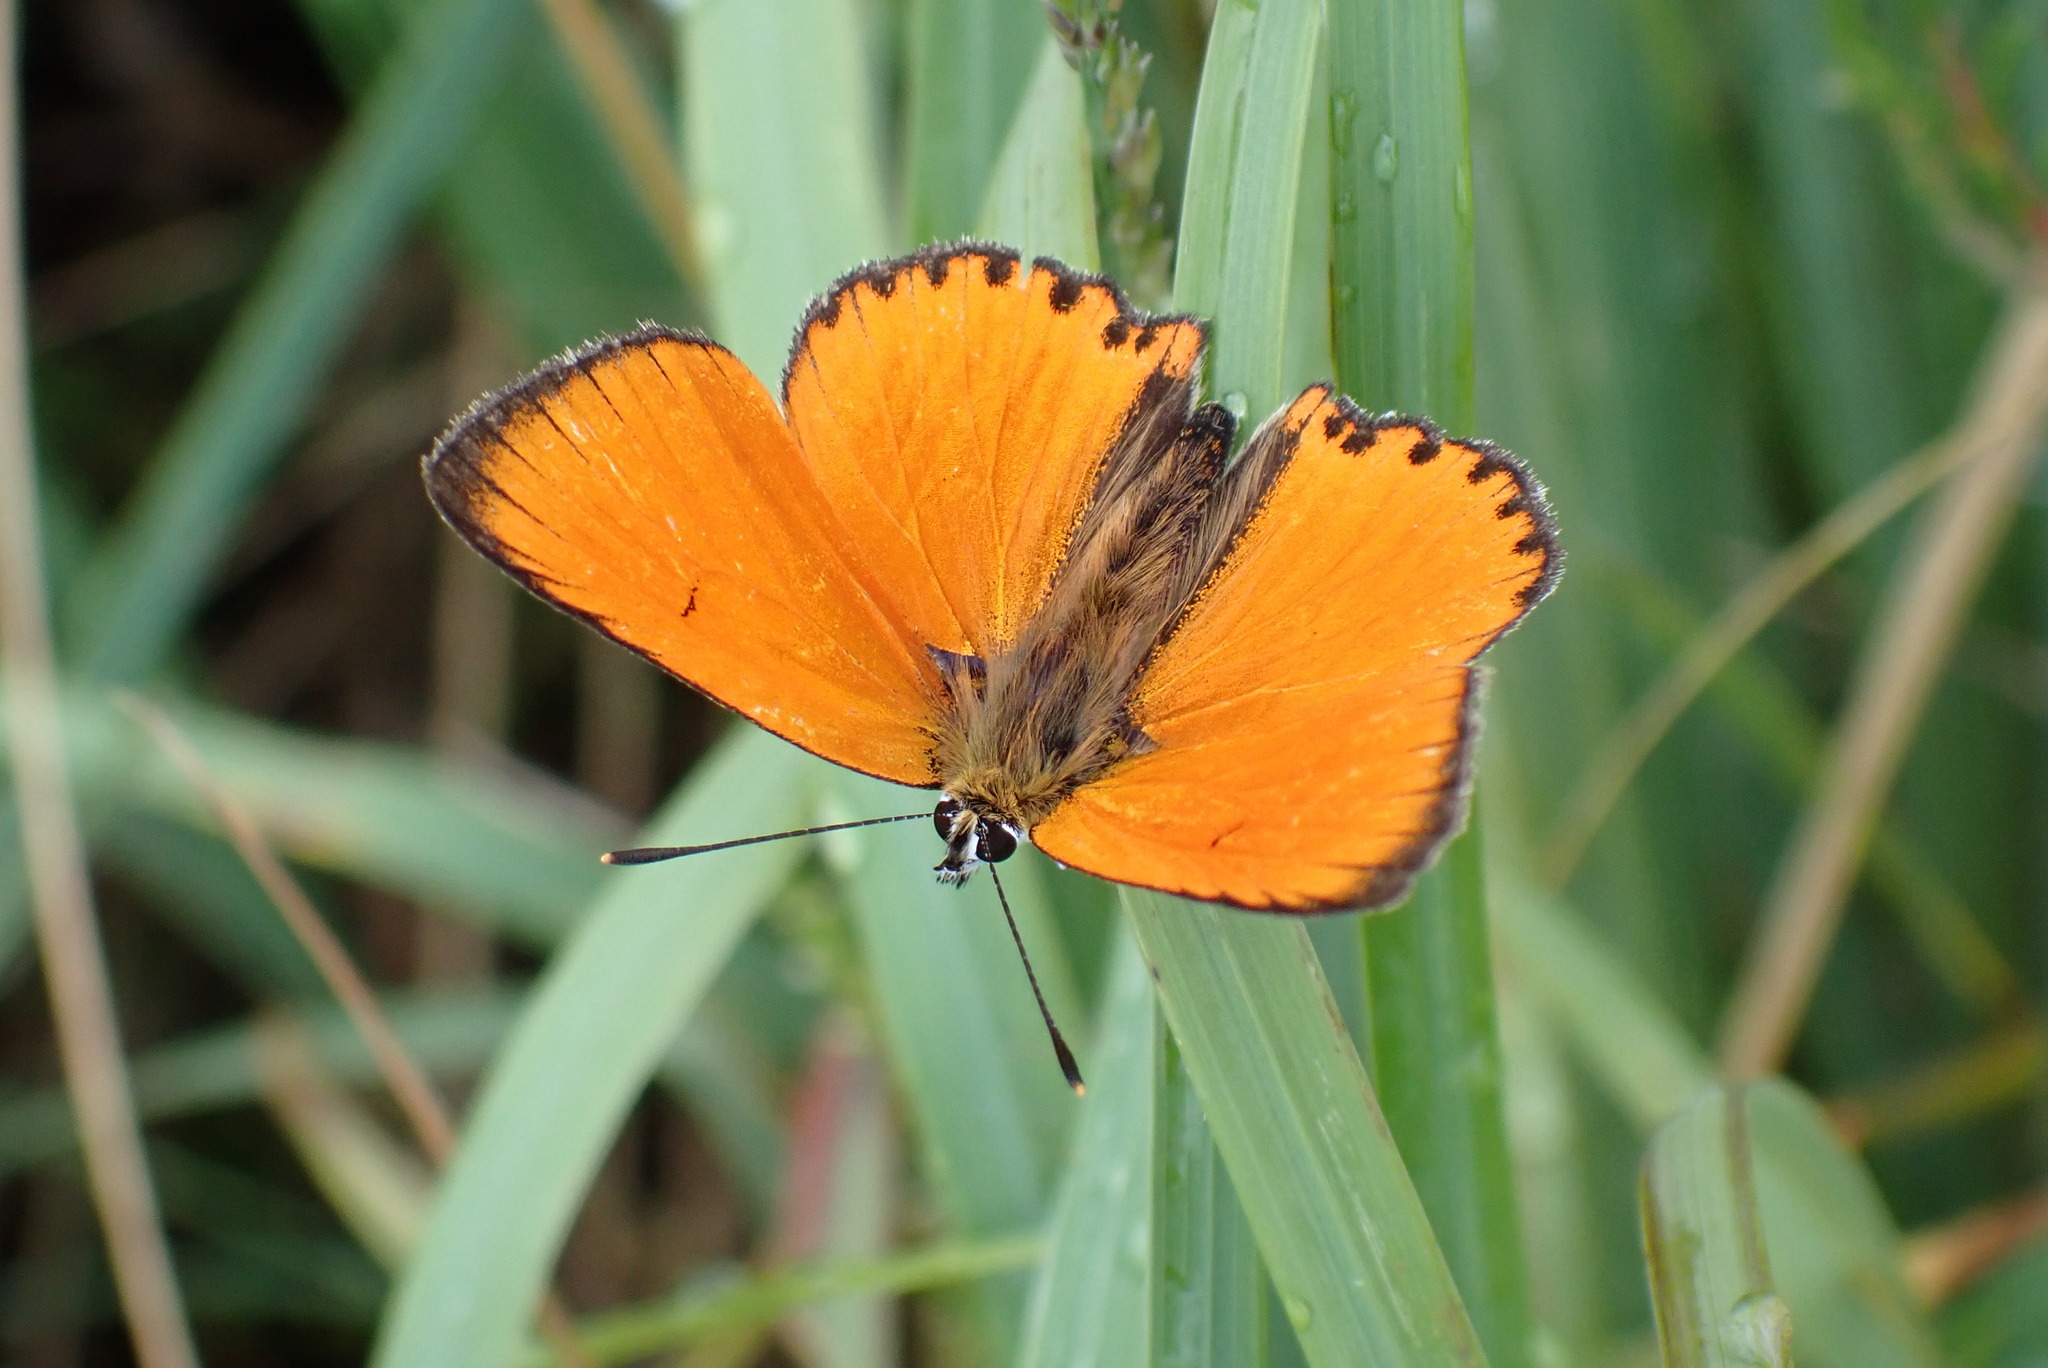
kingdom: Animalia
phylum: Arthropoda
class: Insecta
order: Lepidoptera
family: Lycaenidae
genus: Lycaena
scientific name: Lycaena virgaureae
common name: Scarce copper
